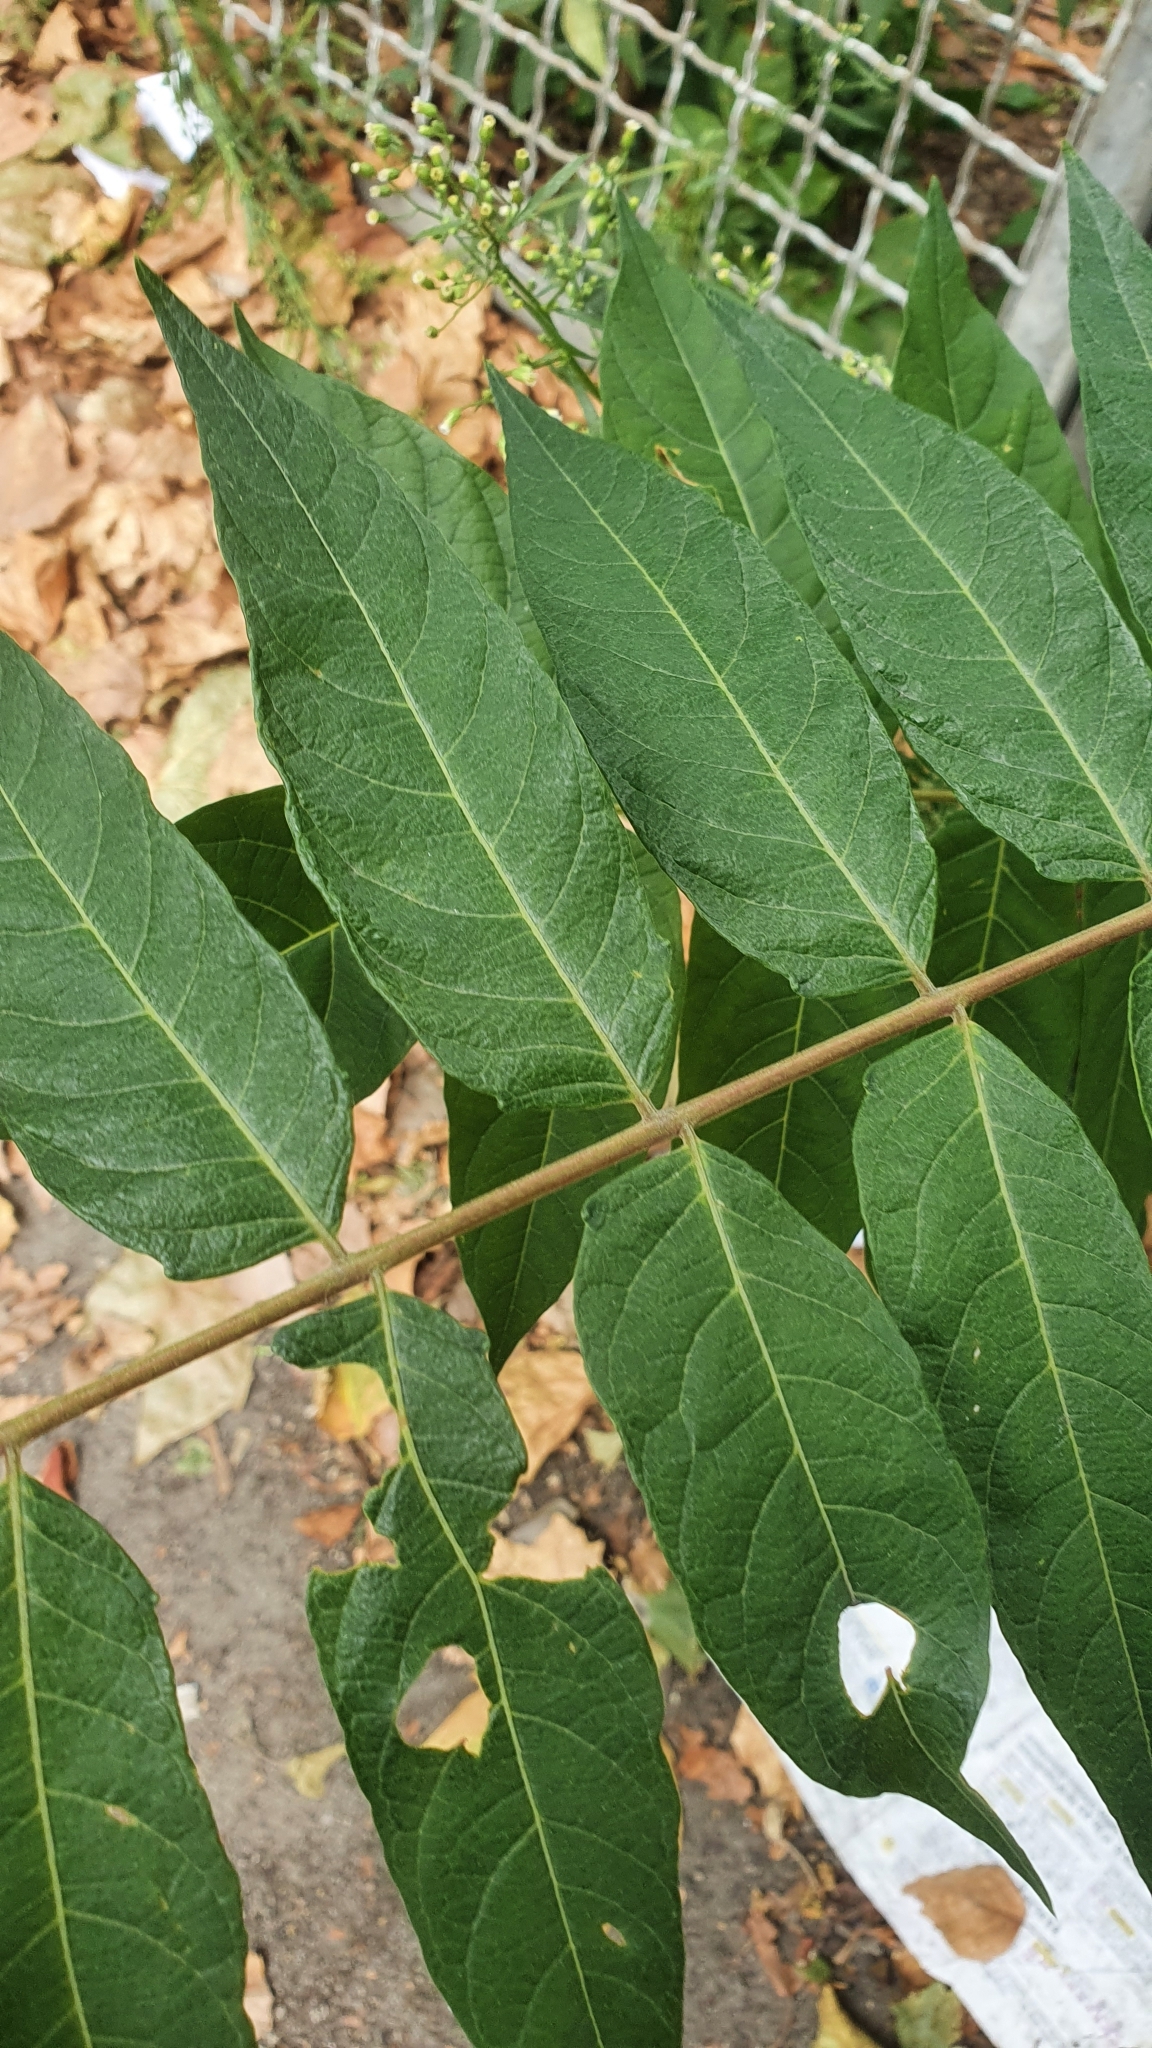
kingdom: Plantae
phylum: Tracheophyta
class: Magnoliopsida
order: Sapindales
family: Simaroubaceae
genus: Ailanthus
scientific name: Ailanthus altissima
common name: Tree-of-heaven
